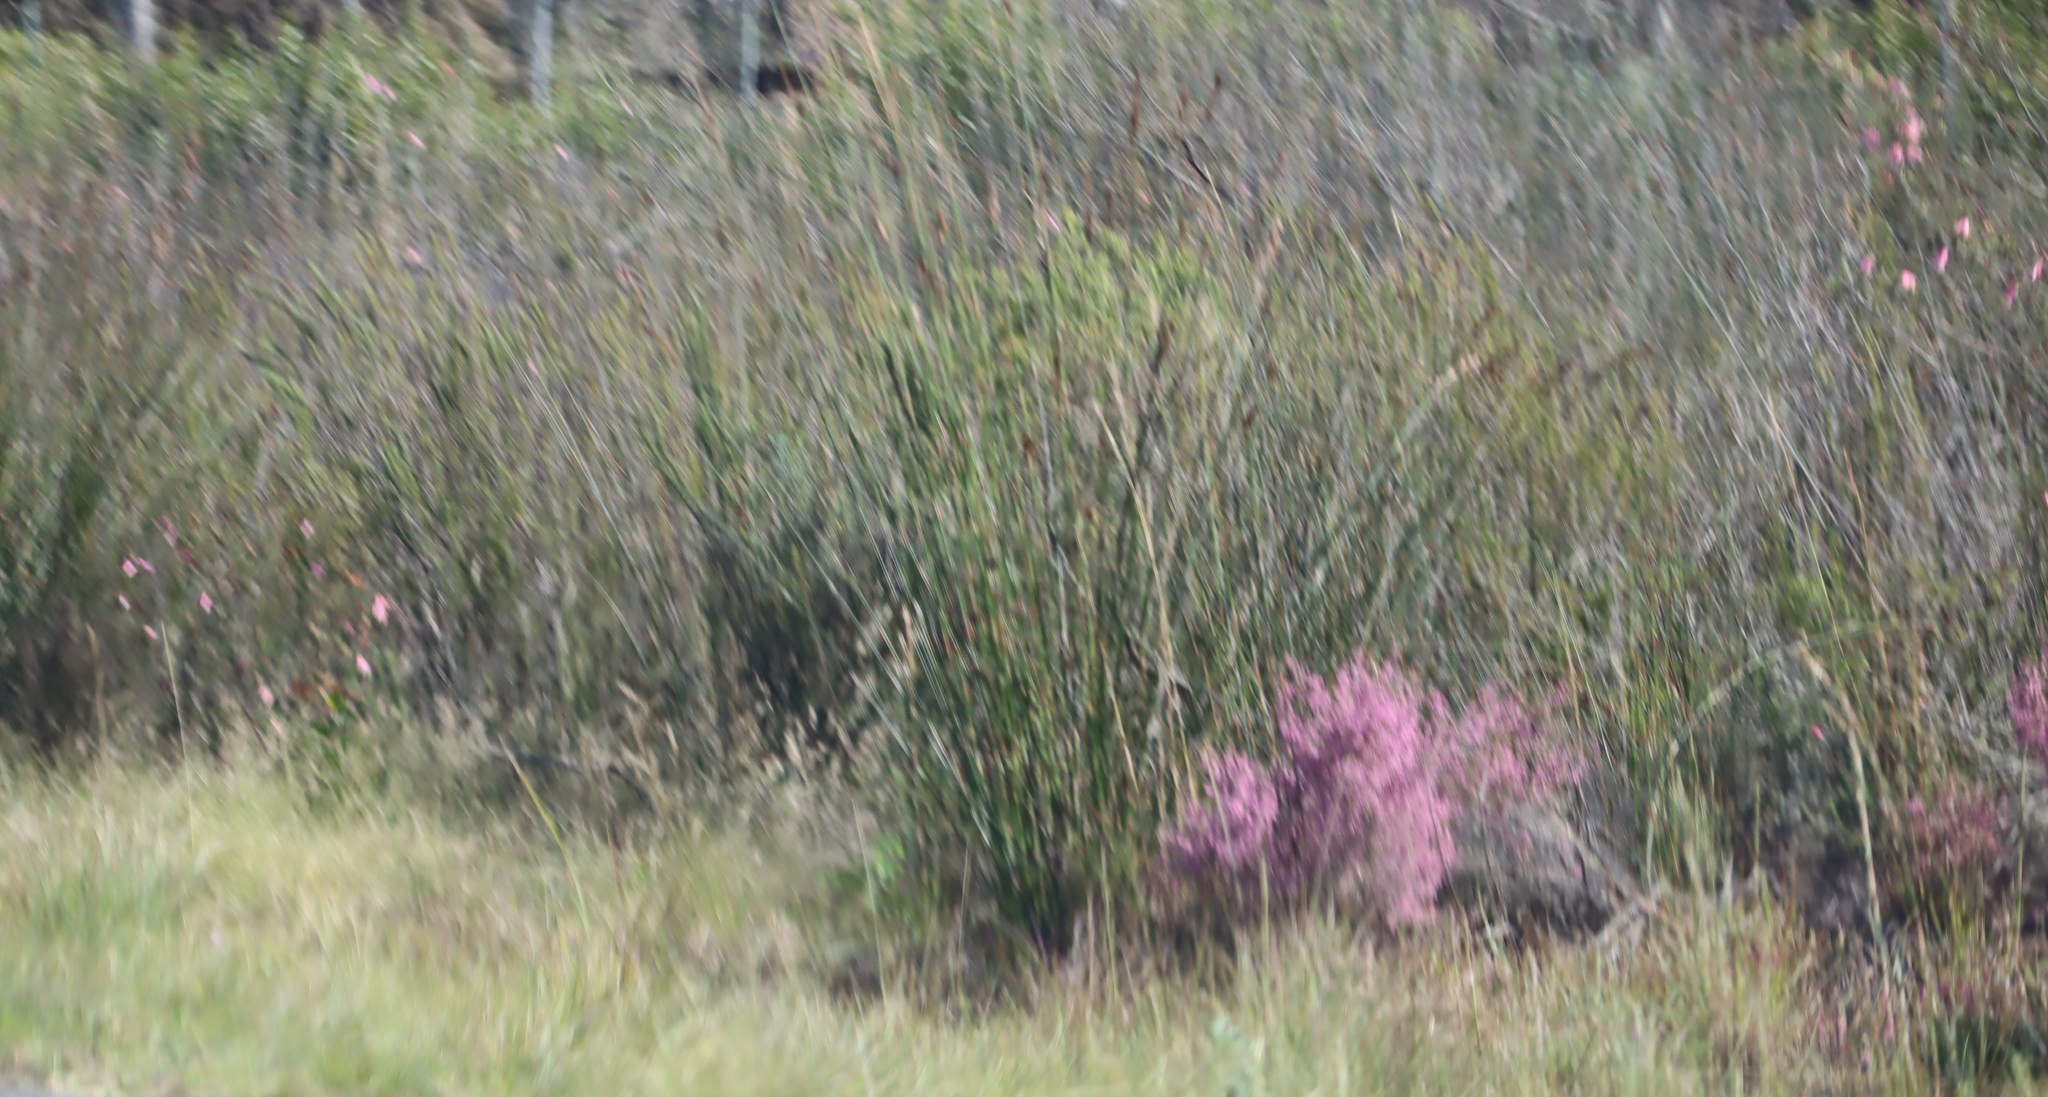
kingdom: Plantae
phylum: Tracheophyta
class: Liliopsida
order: Poales
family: Restionaceae
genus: Thamnochortus
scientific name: Thamnochortus insignis
